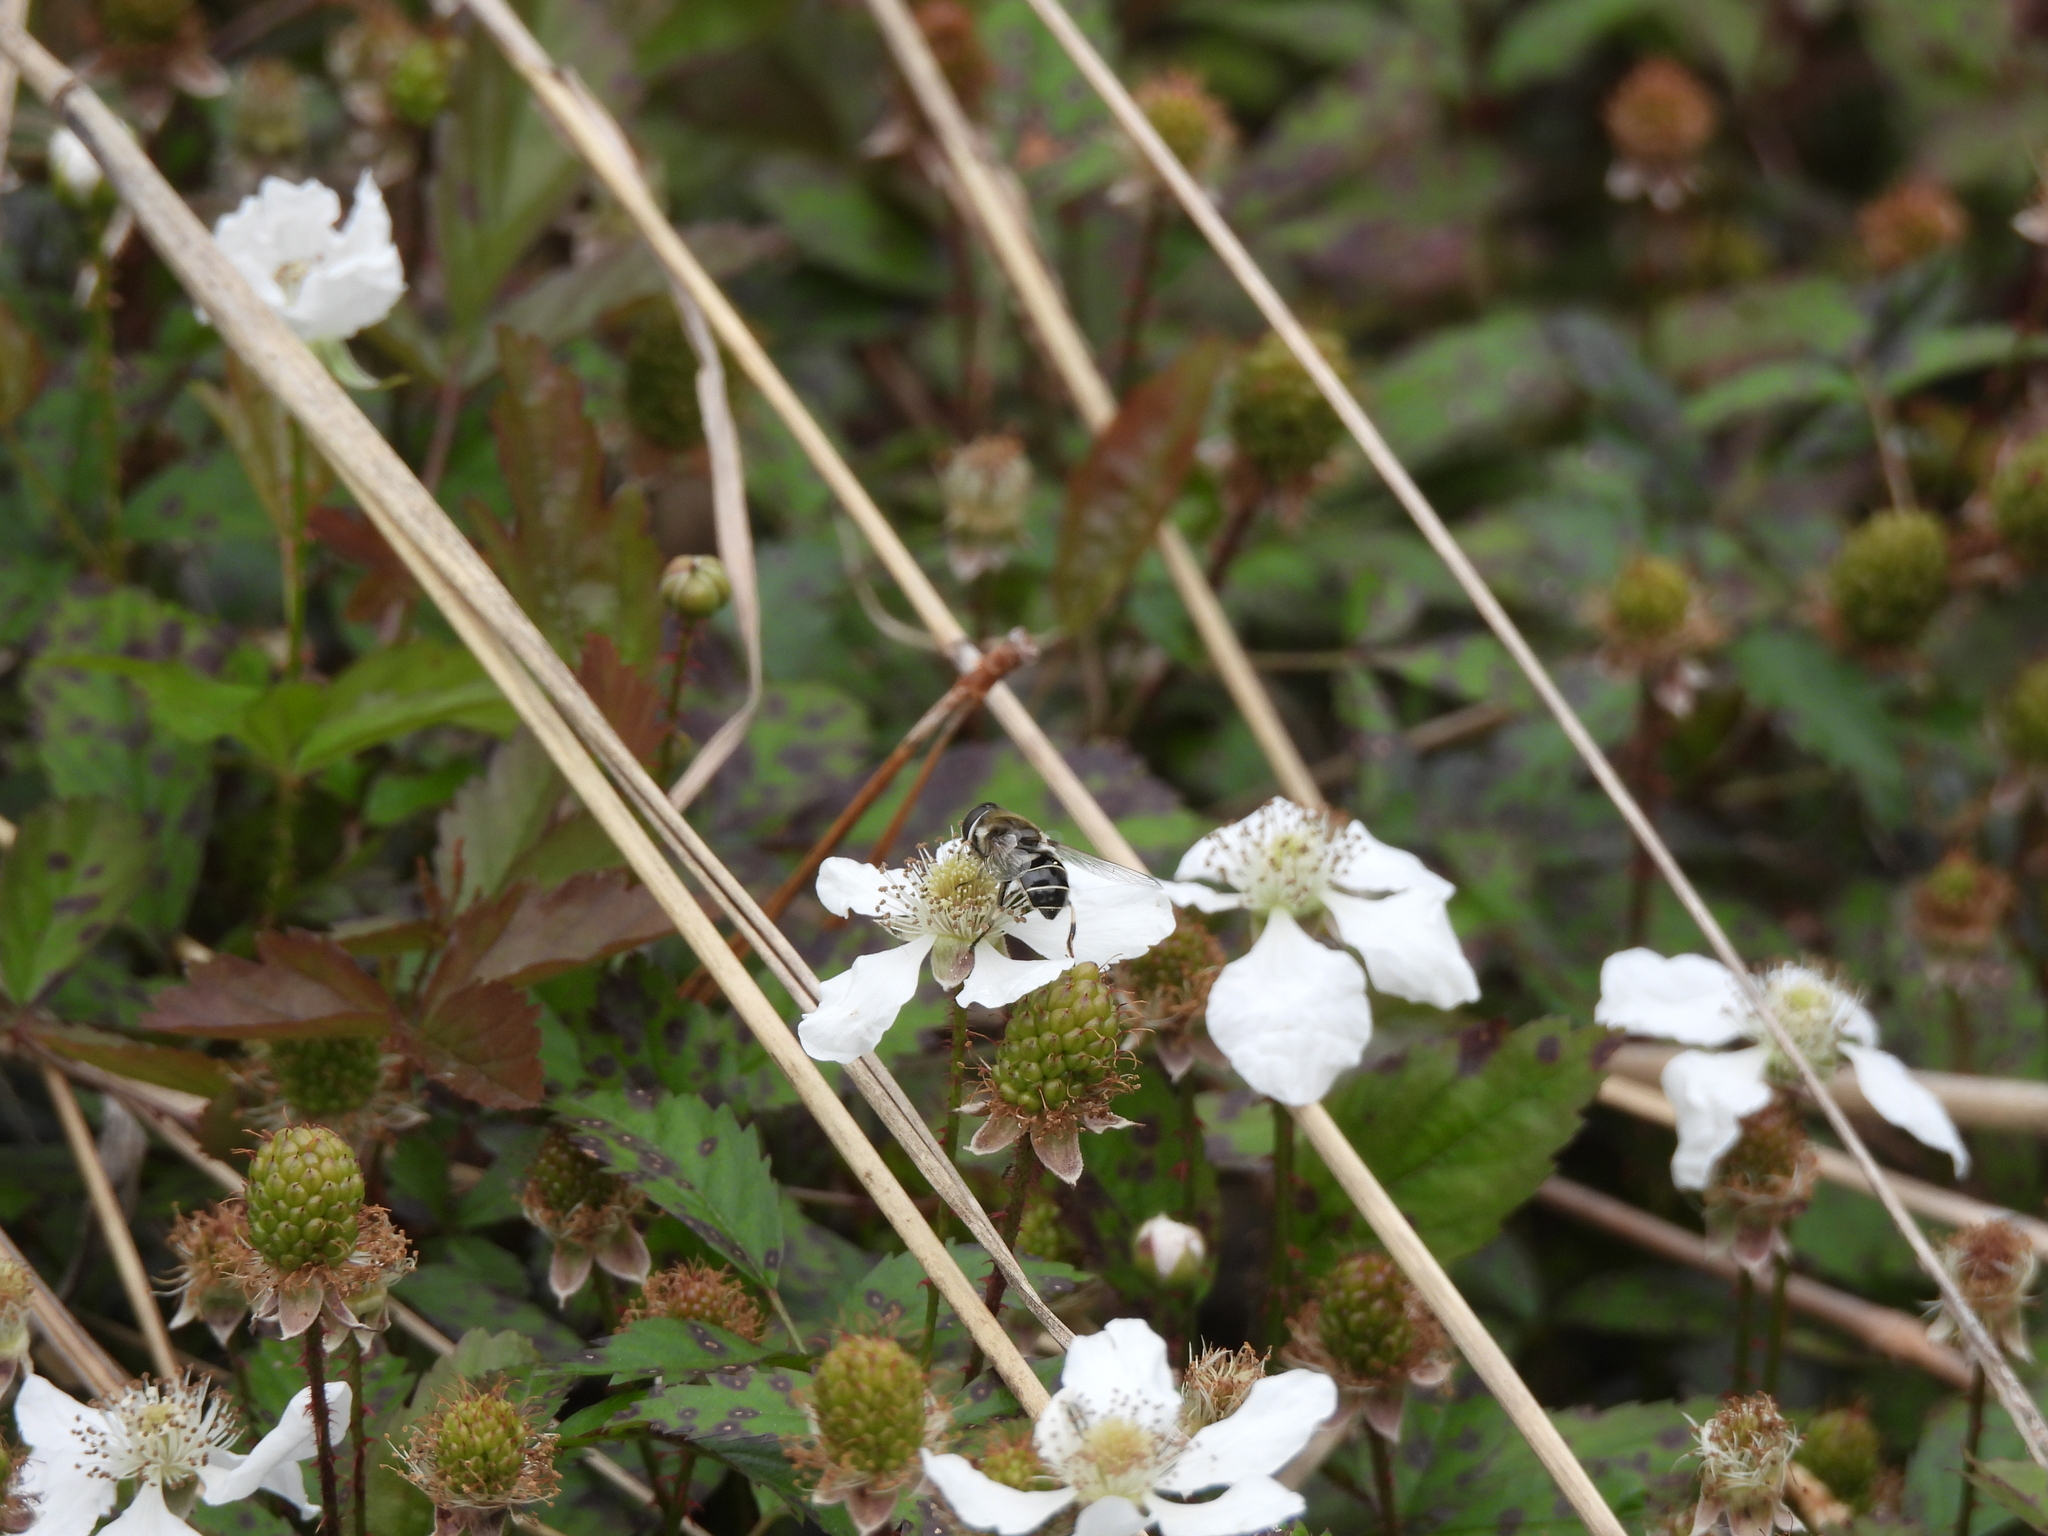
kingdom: Animalia
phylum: Arthropoda
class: Insecta
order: Diptera
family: Syrphidae
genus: Eristalis
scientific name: Eristalis dimidiata
